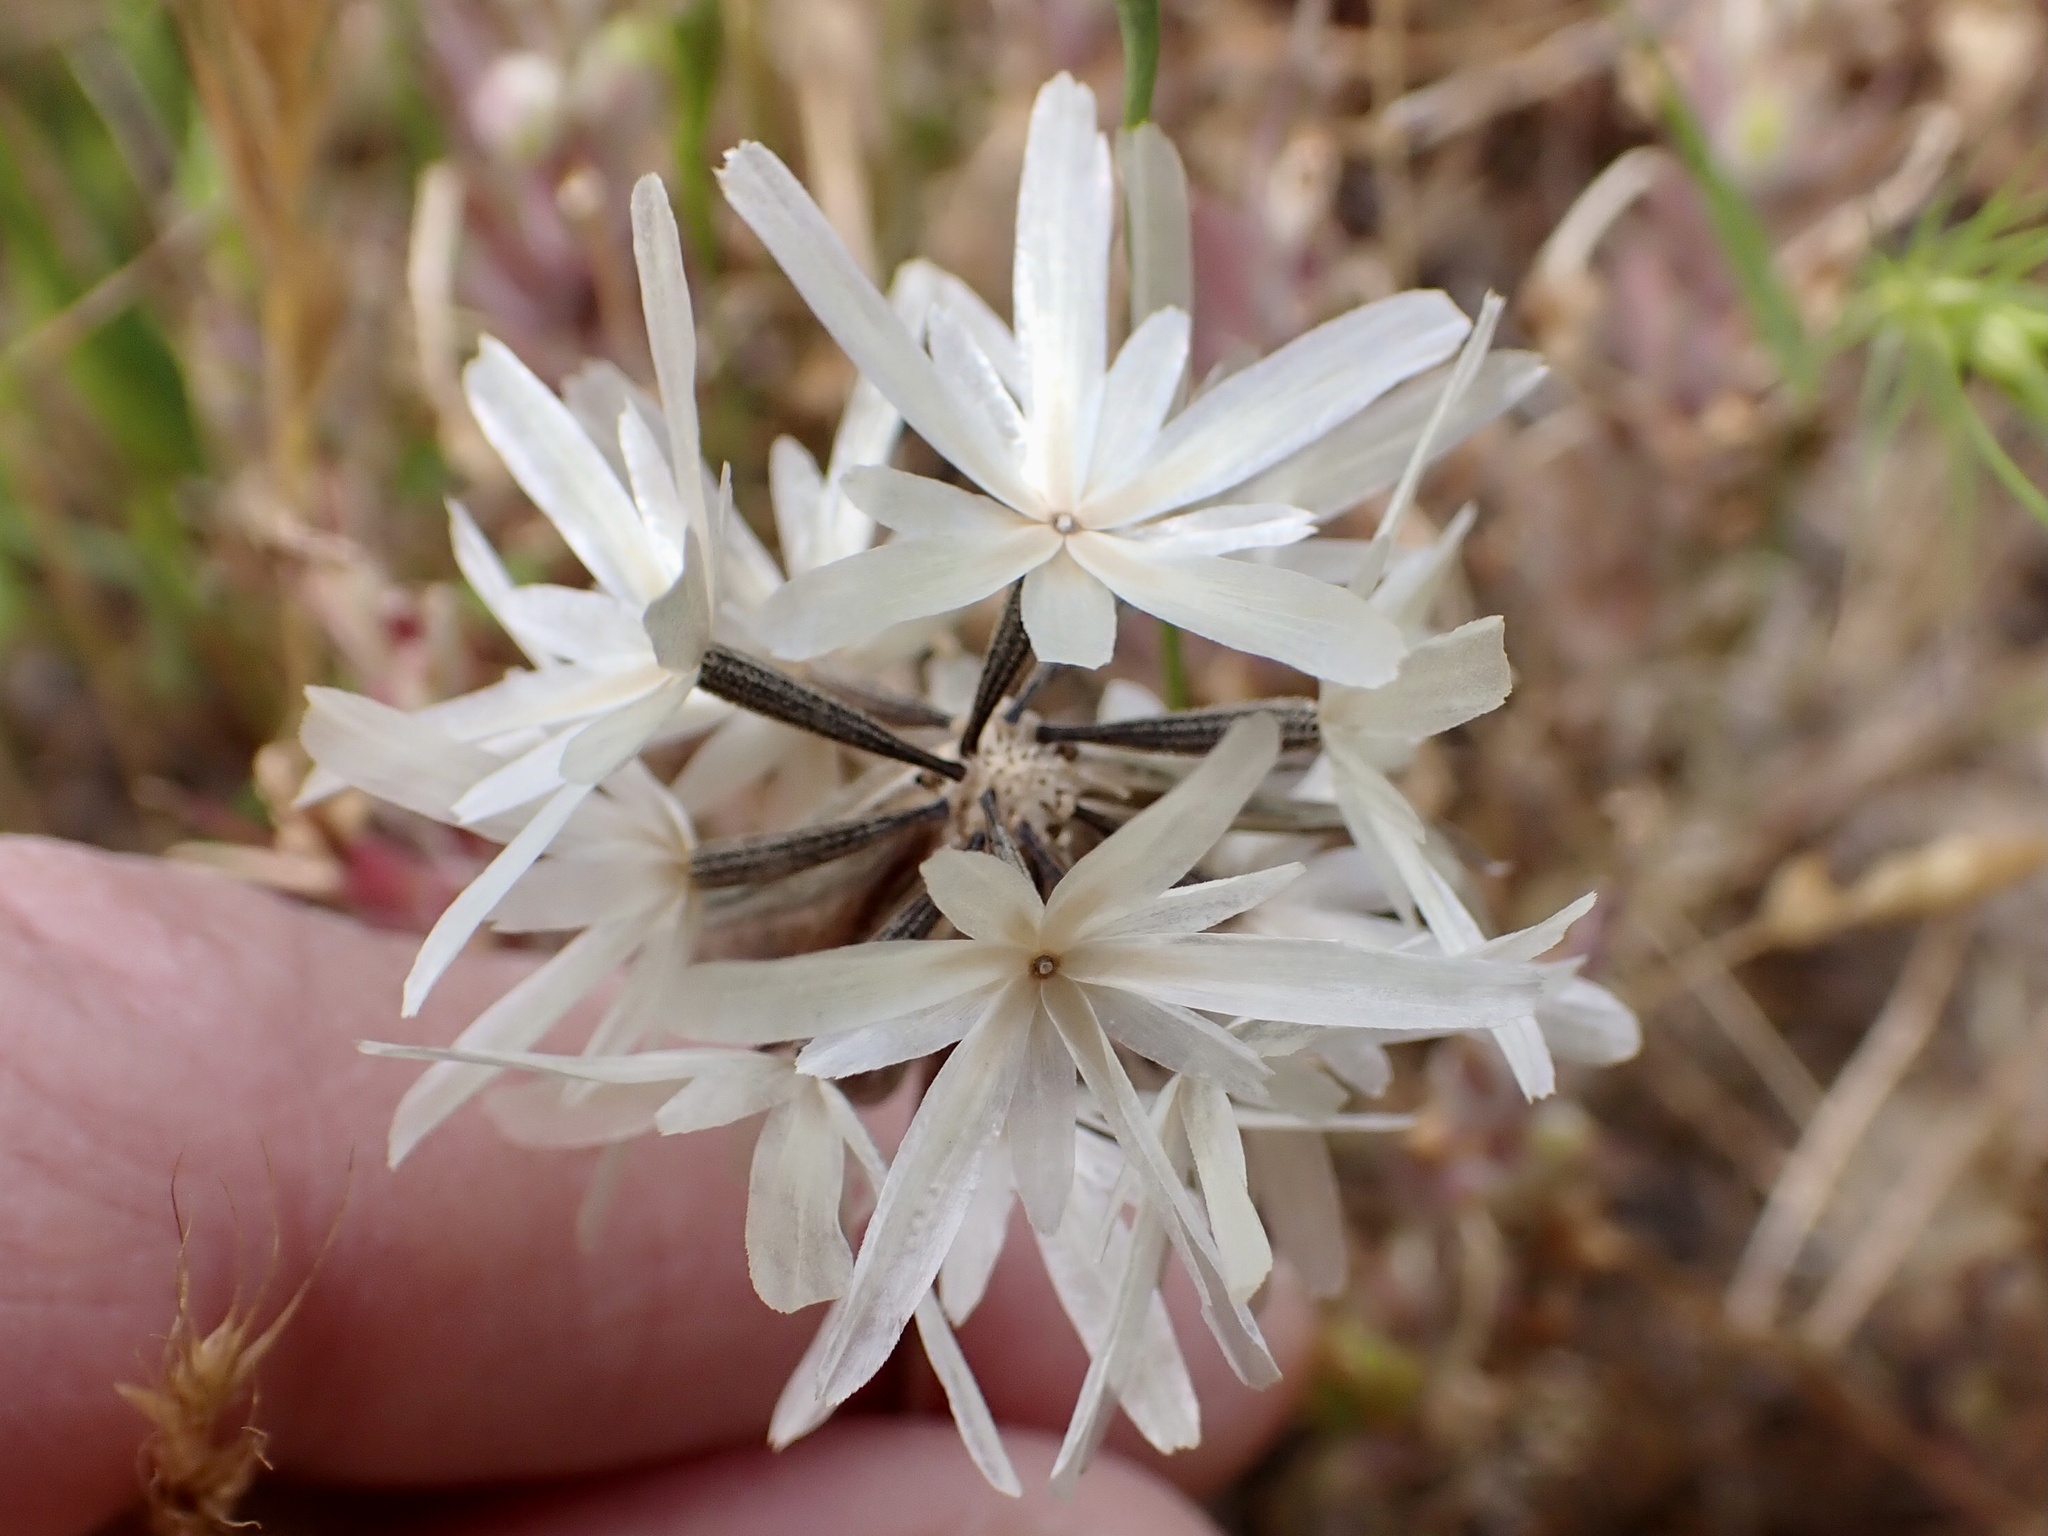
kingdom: Plantae
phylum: Tracheophyta
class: Magnoliopsida
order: Asterales
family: Asteraceae
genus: Achyrachaena
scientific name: Achyrachaena mollis
